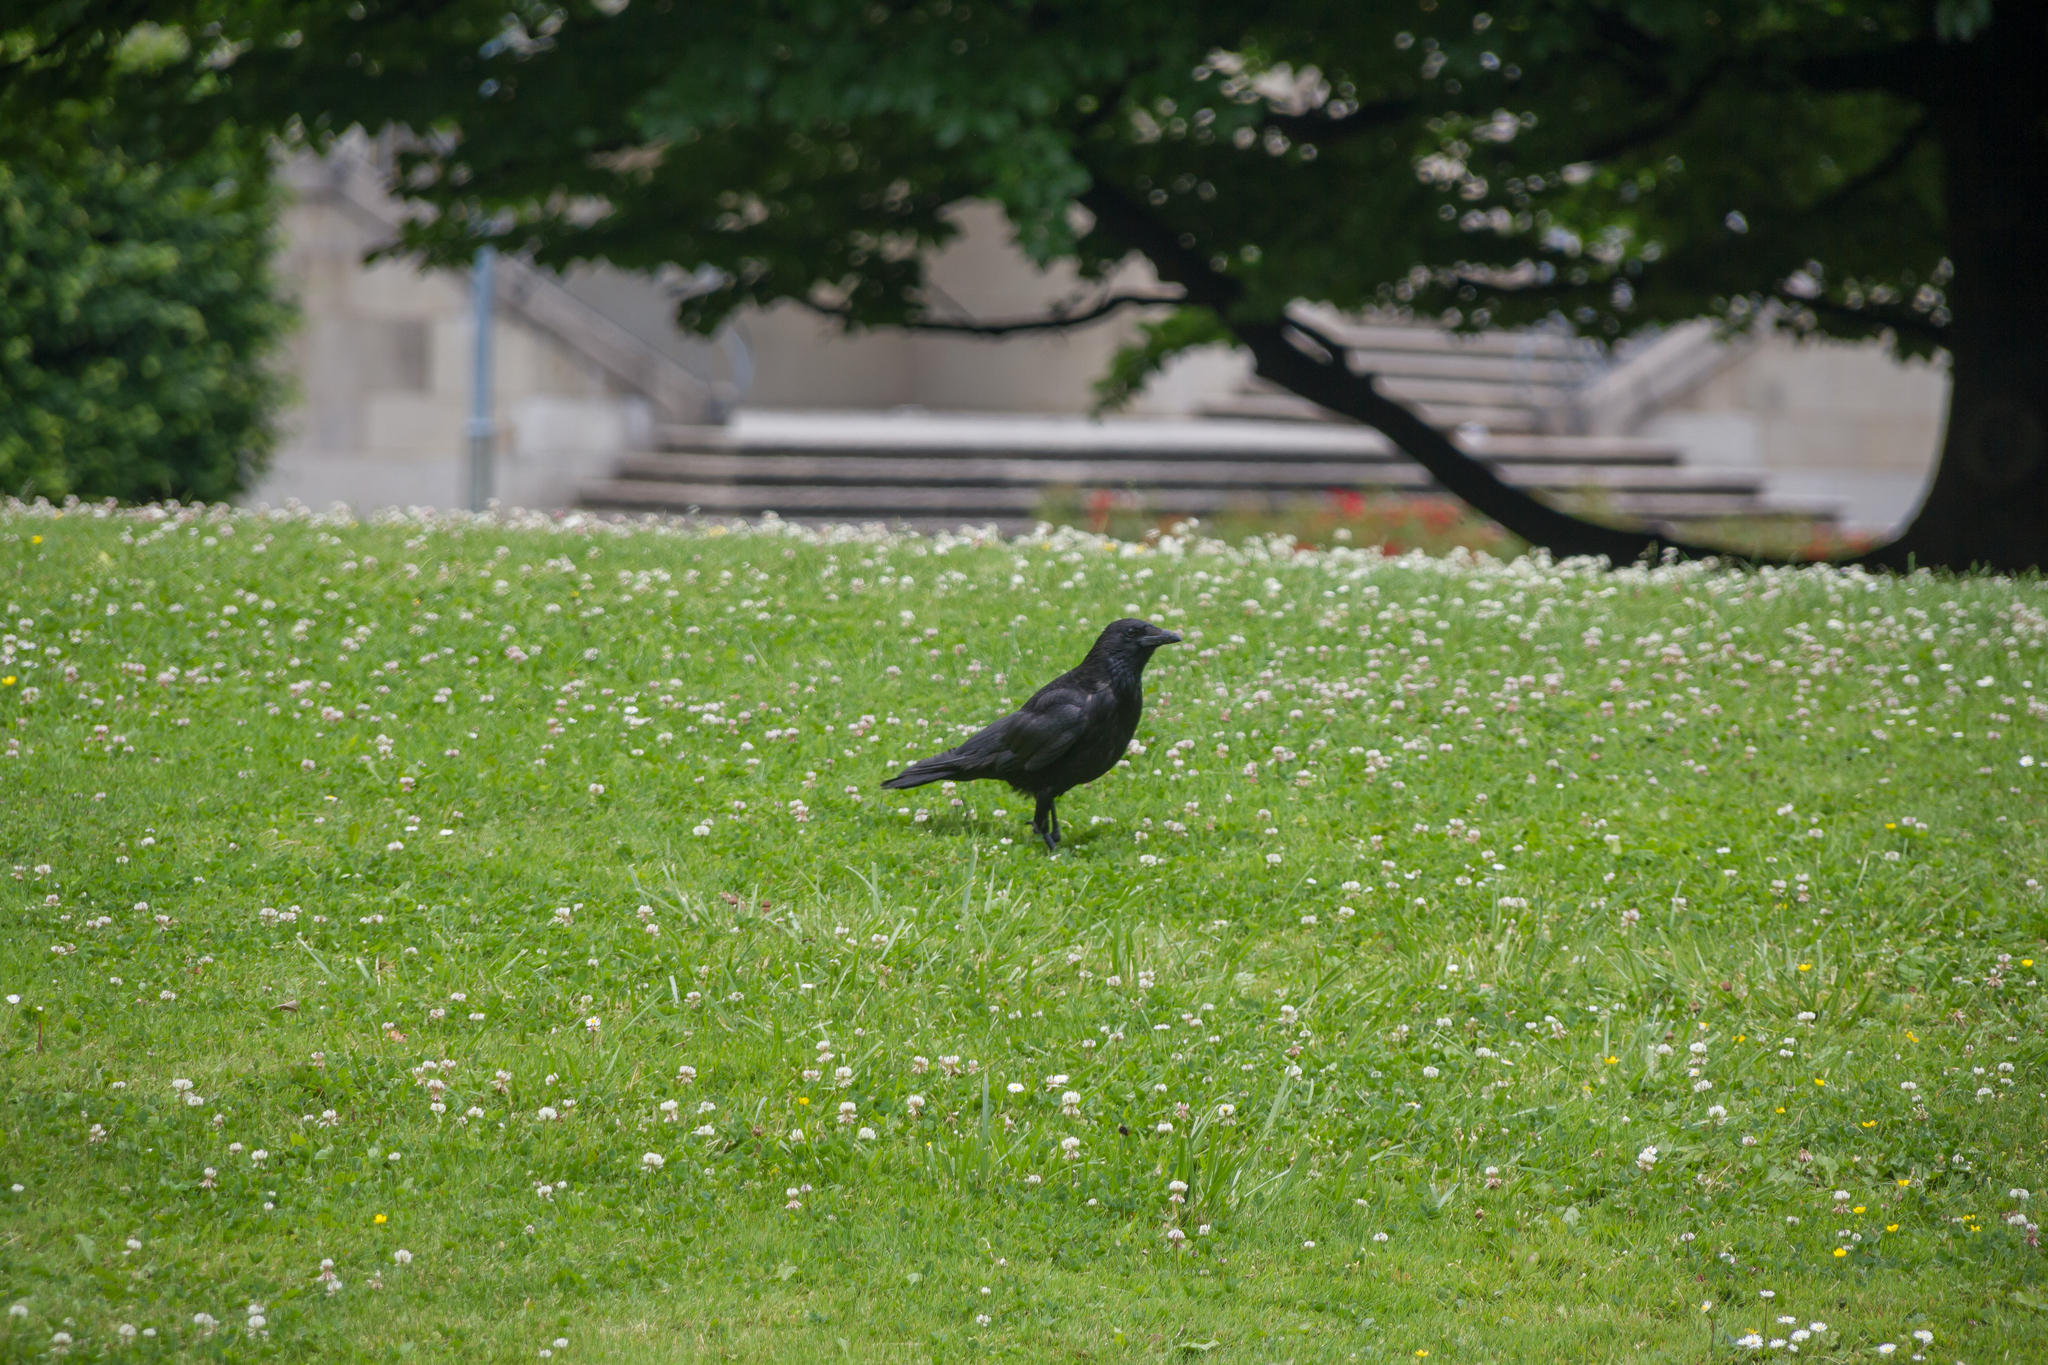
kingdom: Animalia
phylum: Chordata
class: Aves
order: Passeriformes
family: Corvidae
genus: Corvus
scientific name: Corvus corone
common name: Carrion crow
